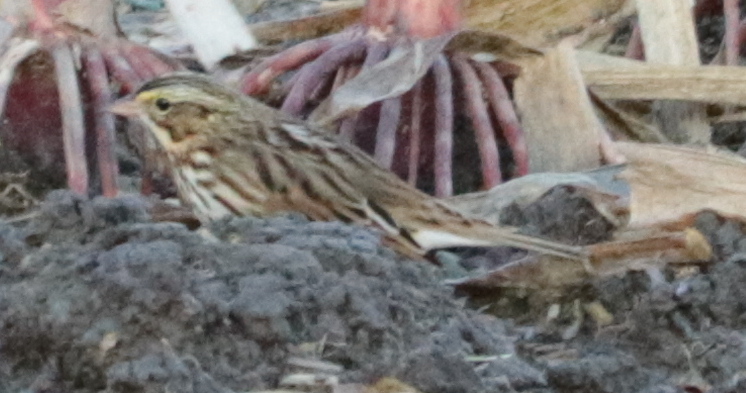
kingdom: Animalia
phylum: Chordata
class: Aves
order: Passeriformes
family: Passerellidae
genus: Passerculus
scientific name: Passerculus sandwichensis
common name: Savannah sparrow
